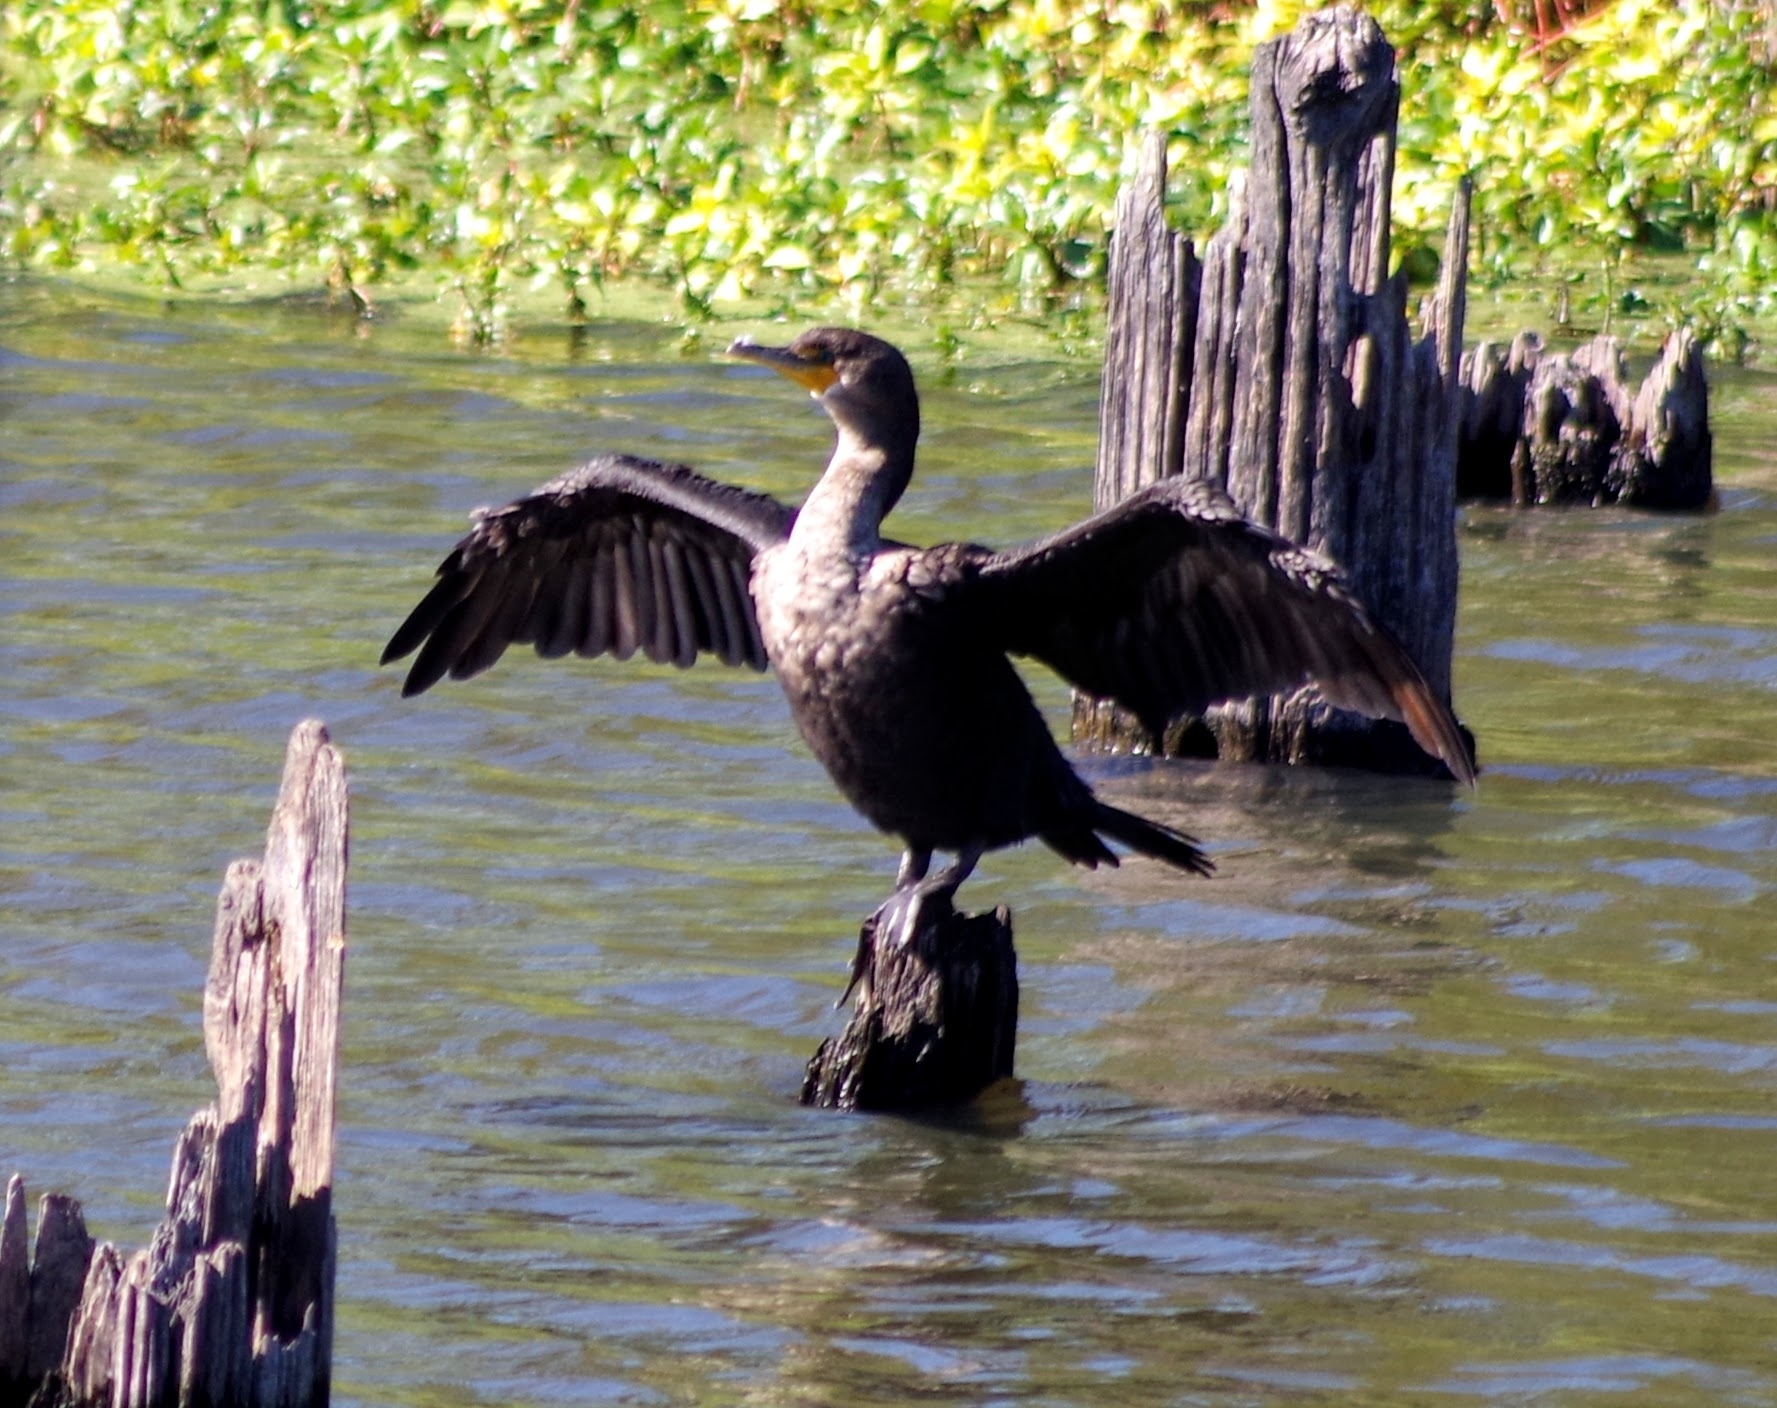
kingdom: Animalia
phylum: Chordata
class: Aves
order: Suliformes
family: Phalacrocoracidae
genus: Phalacrocorax
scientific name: Phalacrocorax auritus
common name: Double-crested cormorant
